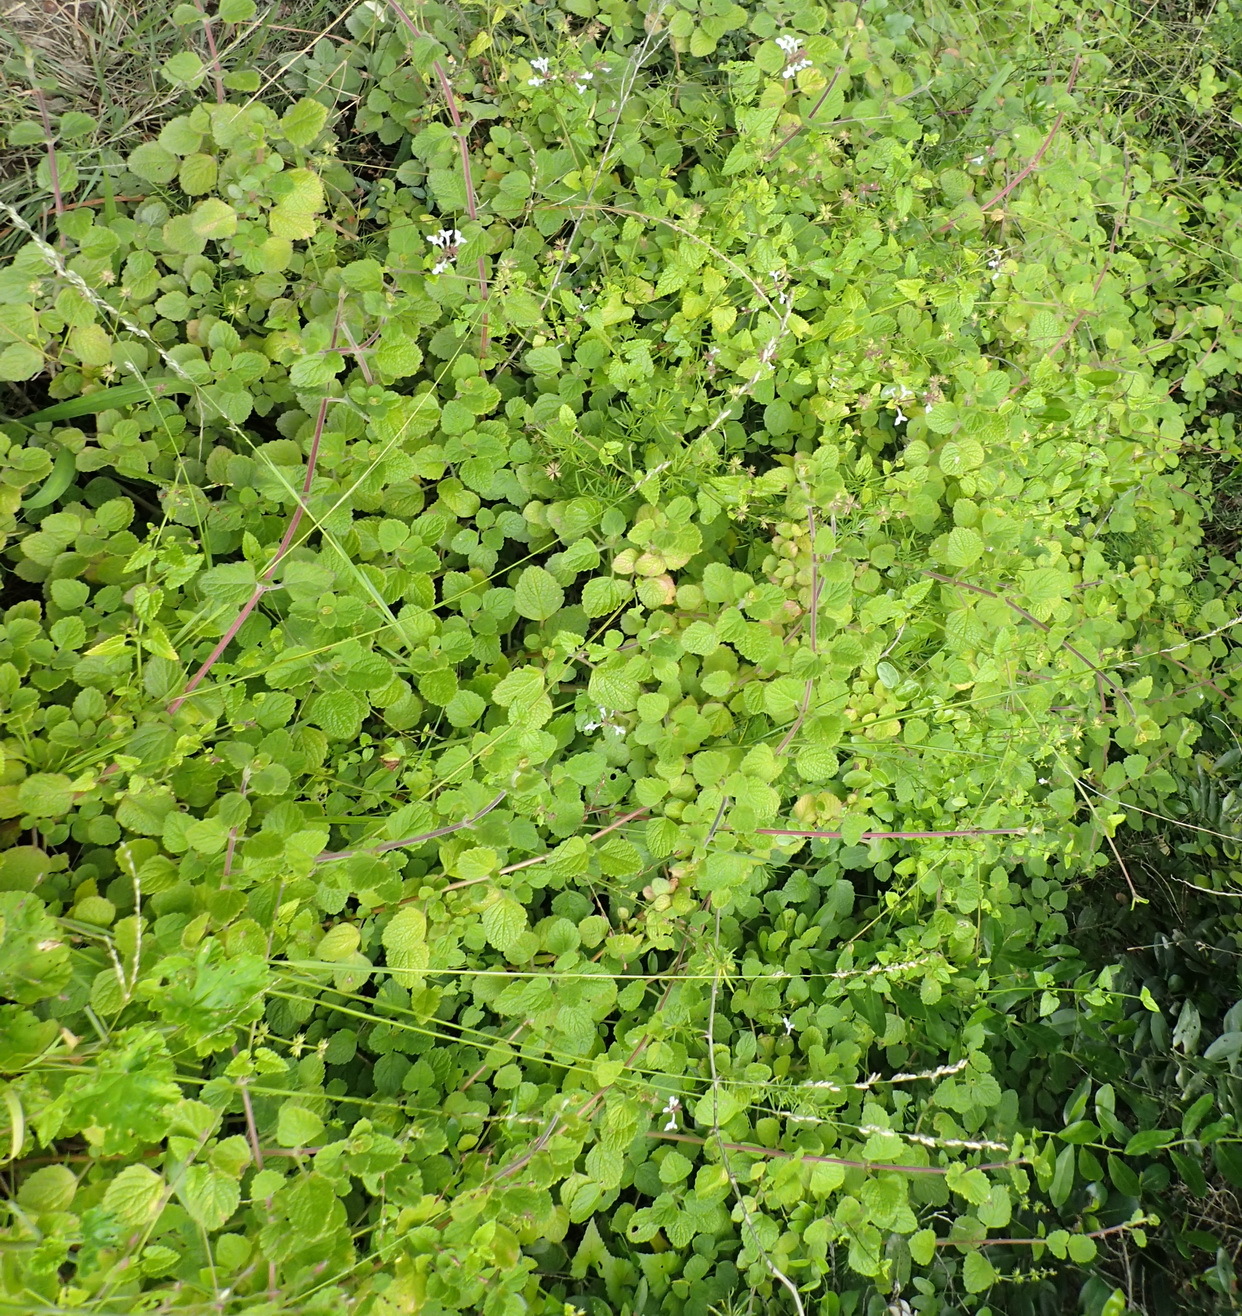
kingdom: Plantae
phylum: Tracheophyta
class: Magnoliopsida
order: Lamiales
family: Lamiaceae
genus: Stachys
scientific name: Stachys aethiopica
